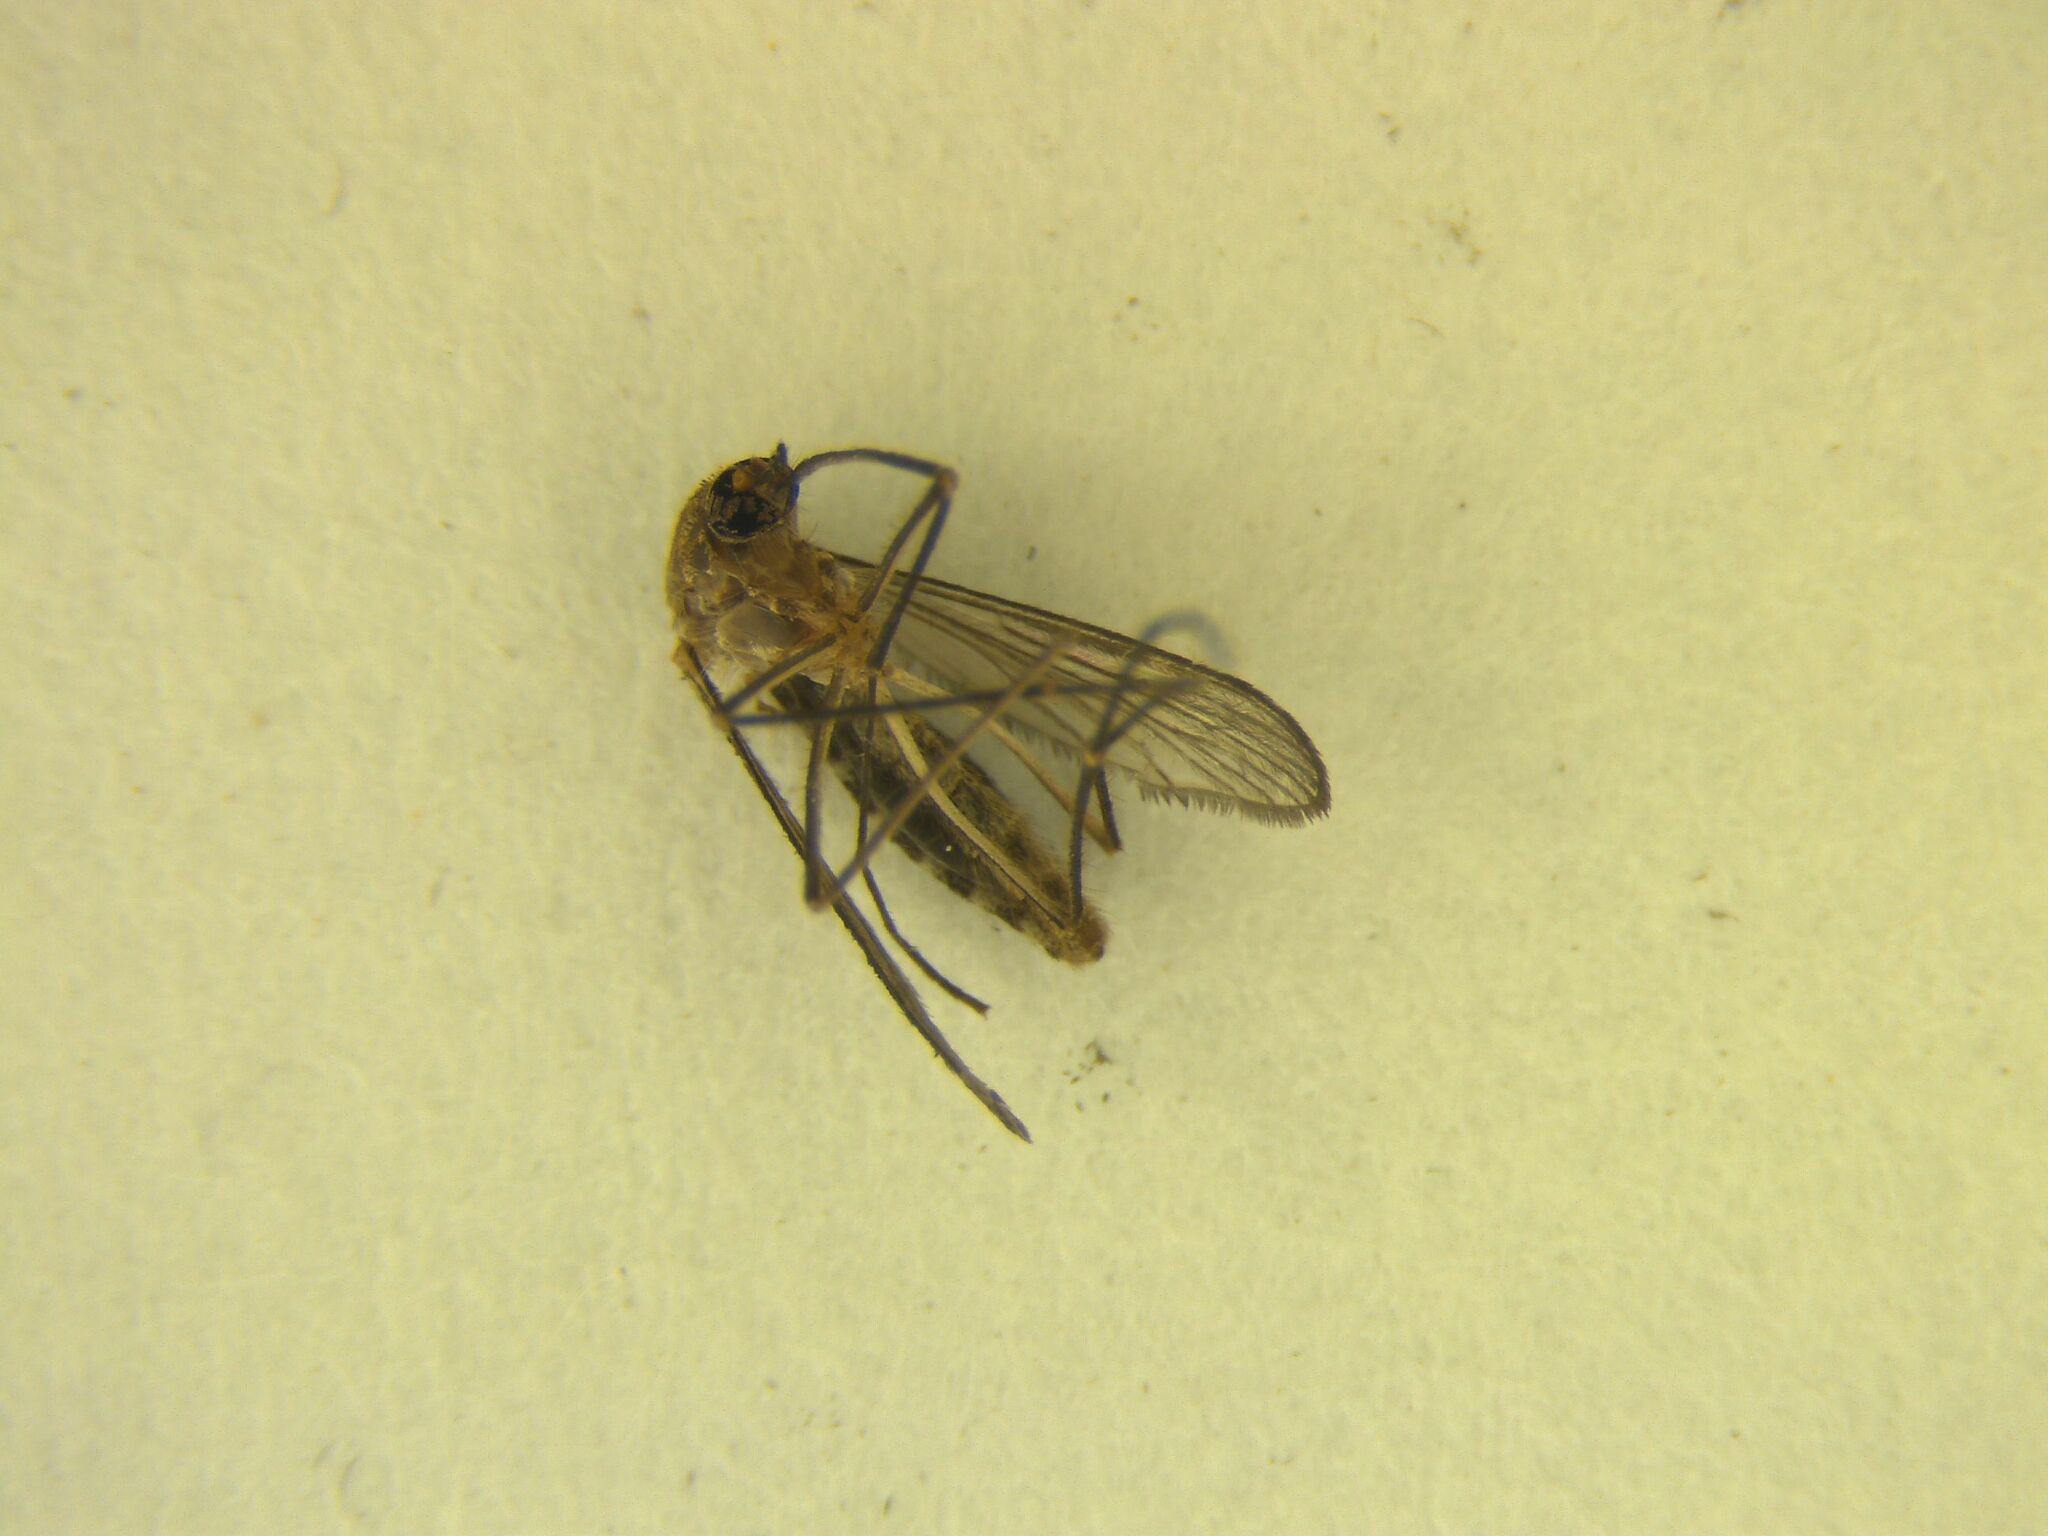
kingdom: Animalia
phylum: Arthropoda
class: Insecta
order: Diptera
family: Culicidae
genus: Culex
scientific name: Culex quinquefasciatus
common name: Southern house mosquito
